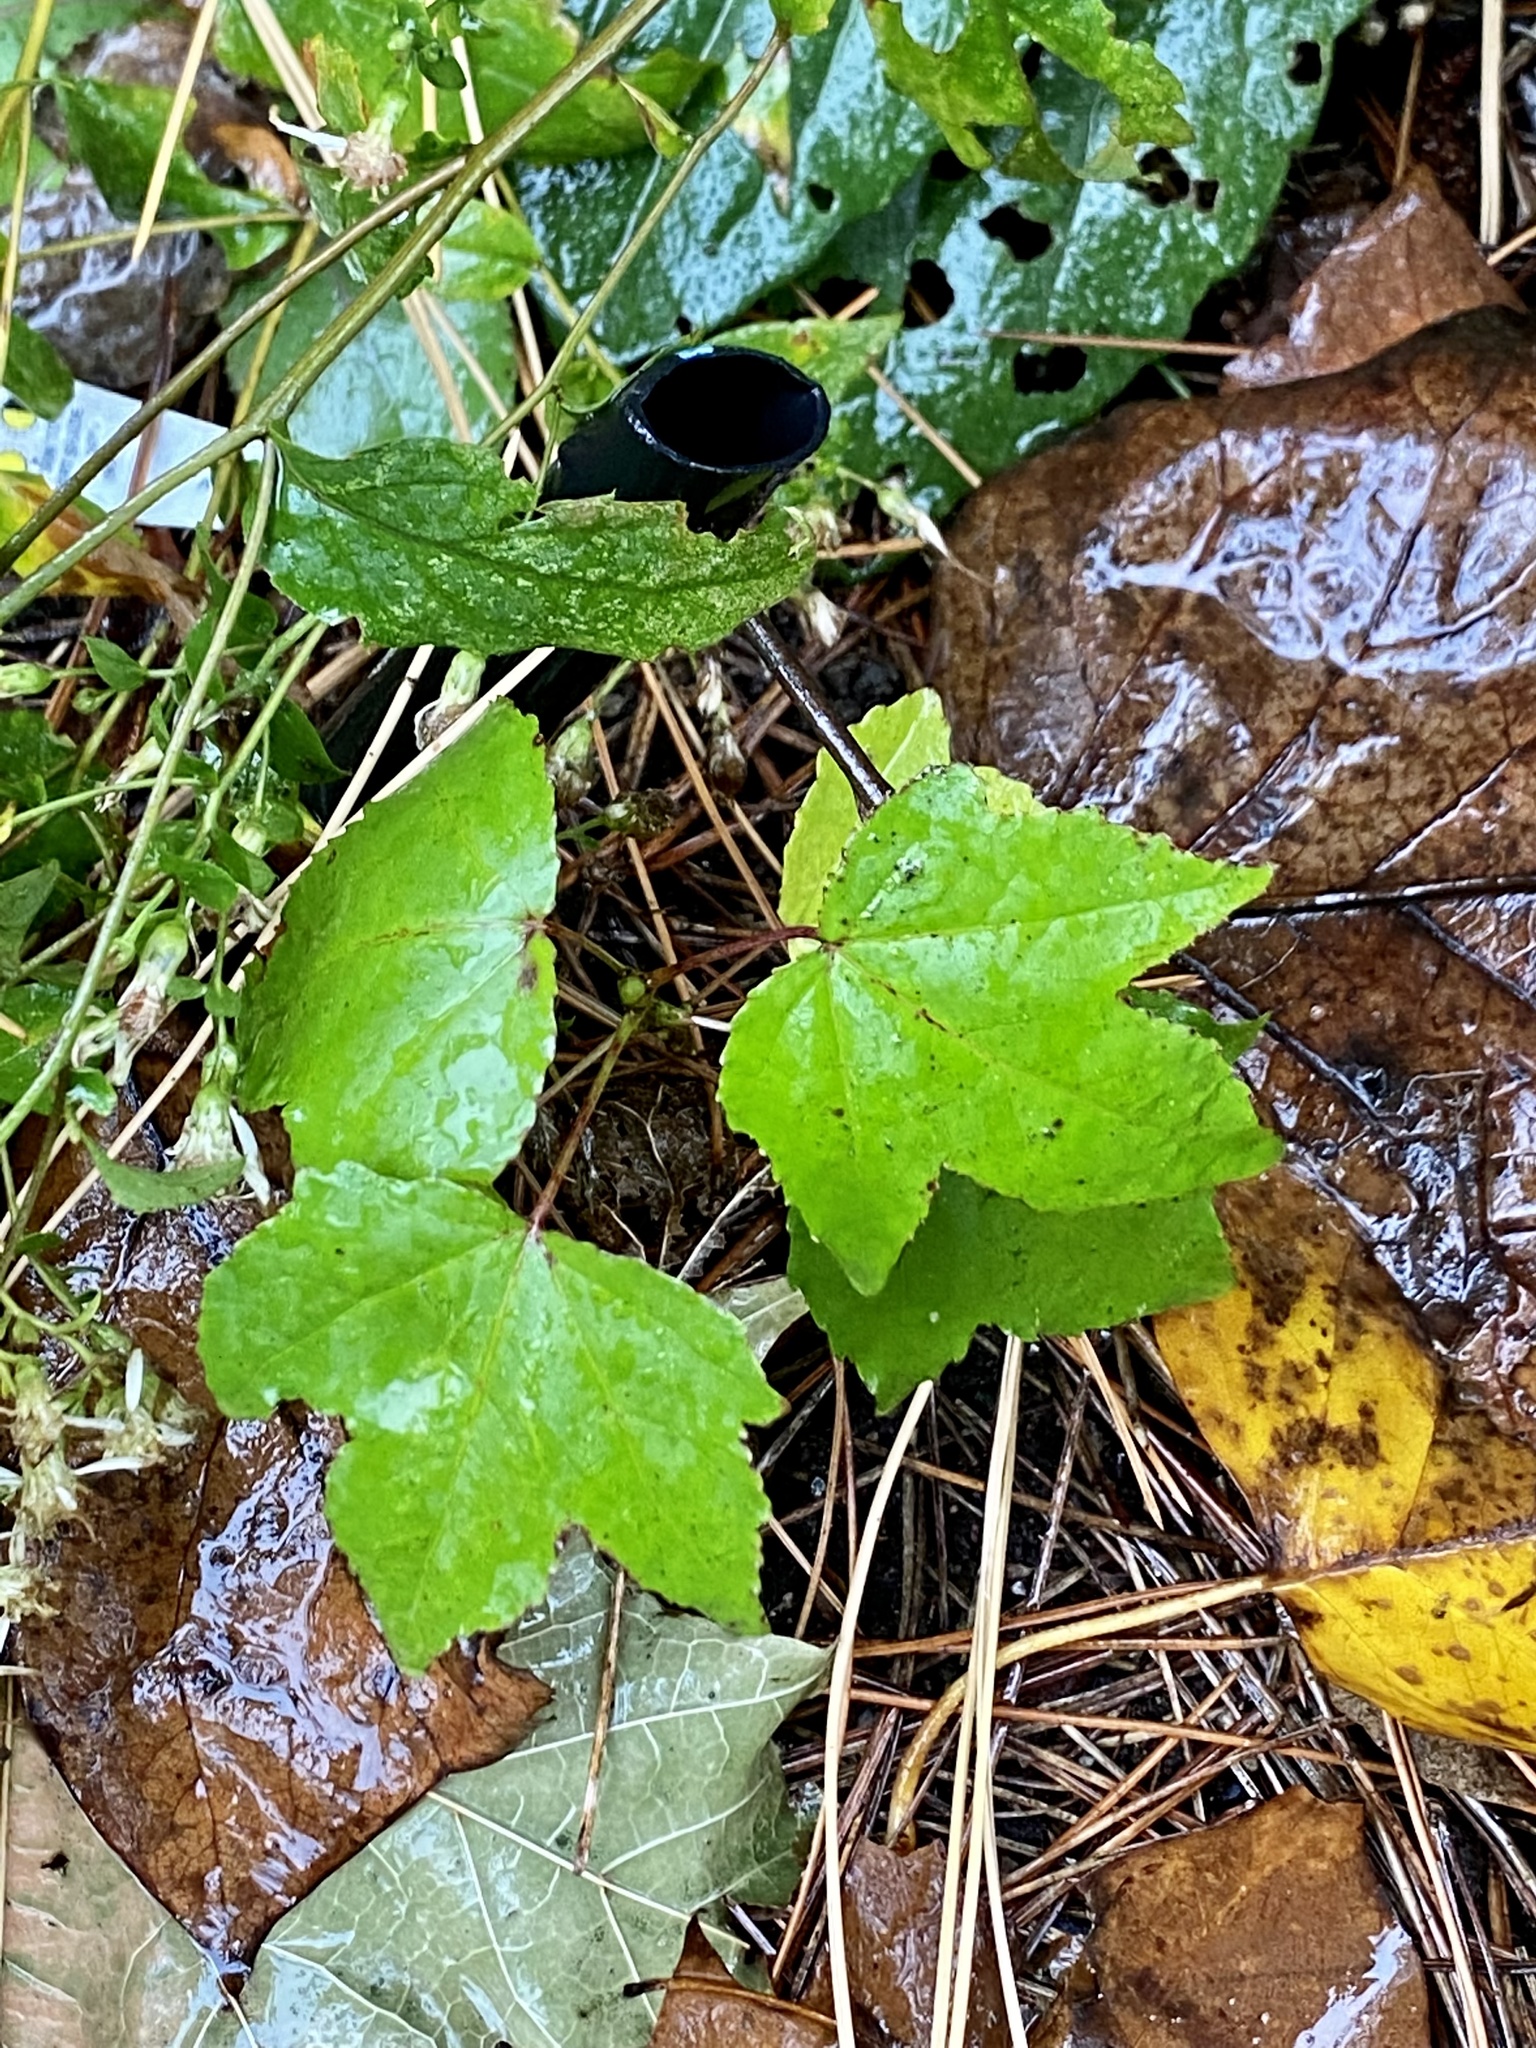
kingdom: Plantae
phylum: Tracheophyta
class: Magnoliopsida
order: Saxifragales
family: Altingiaceae
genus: Liquidambar
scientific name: Liquidambar styraciflua
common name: Sweet gum
